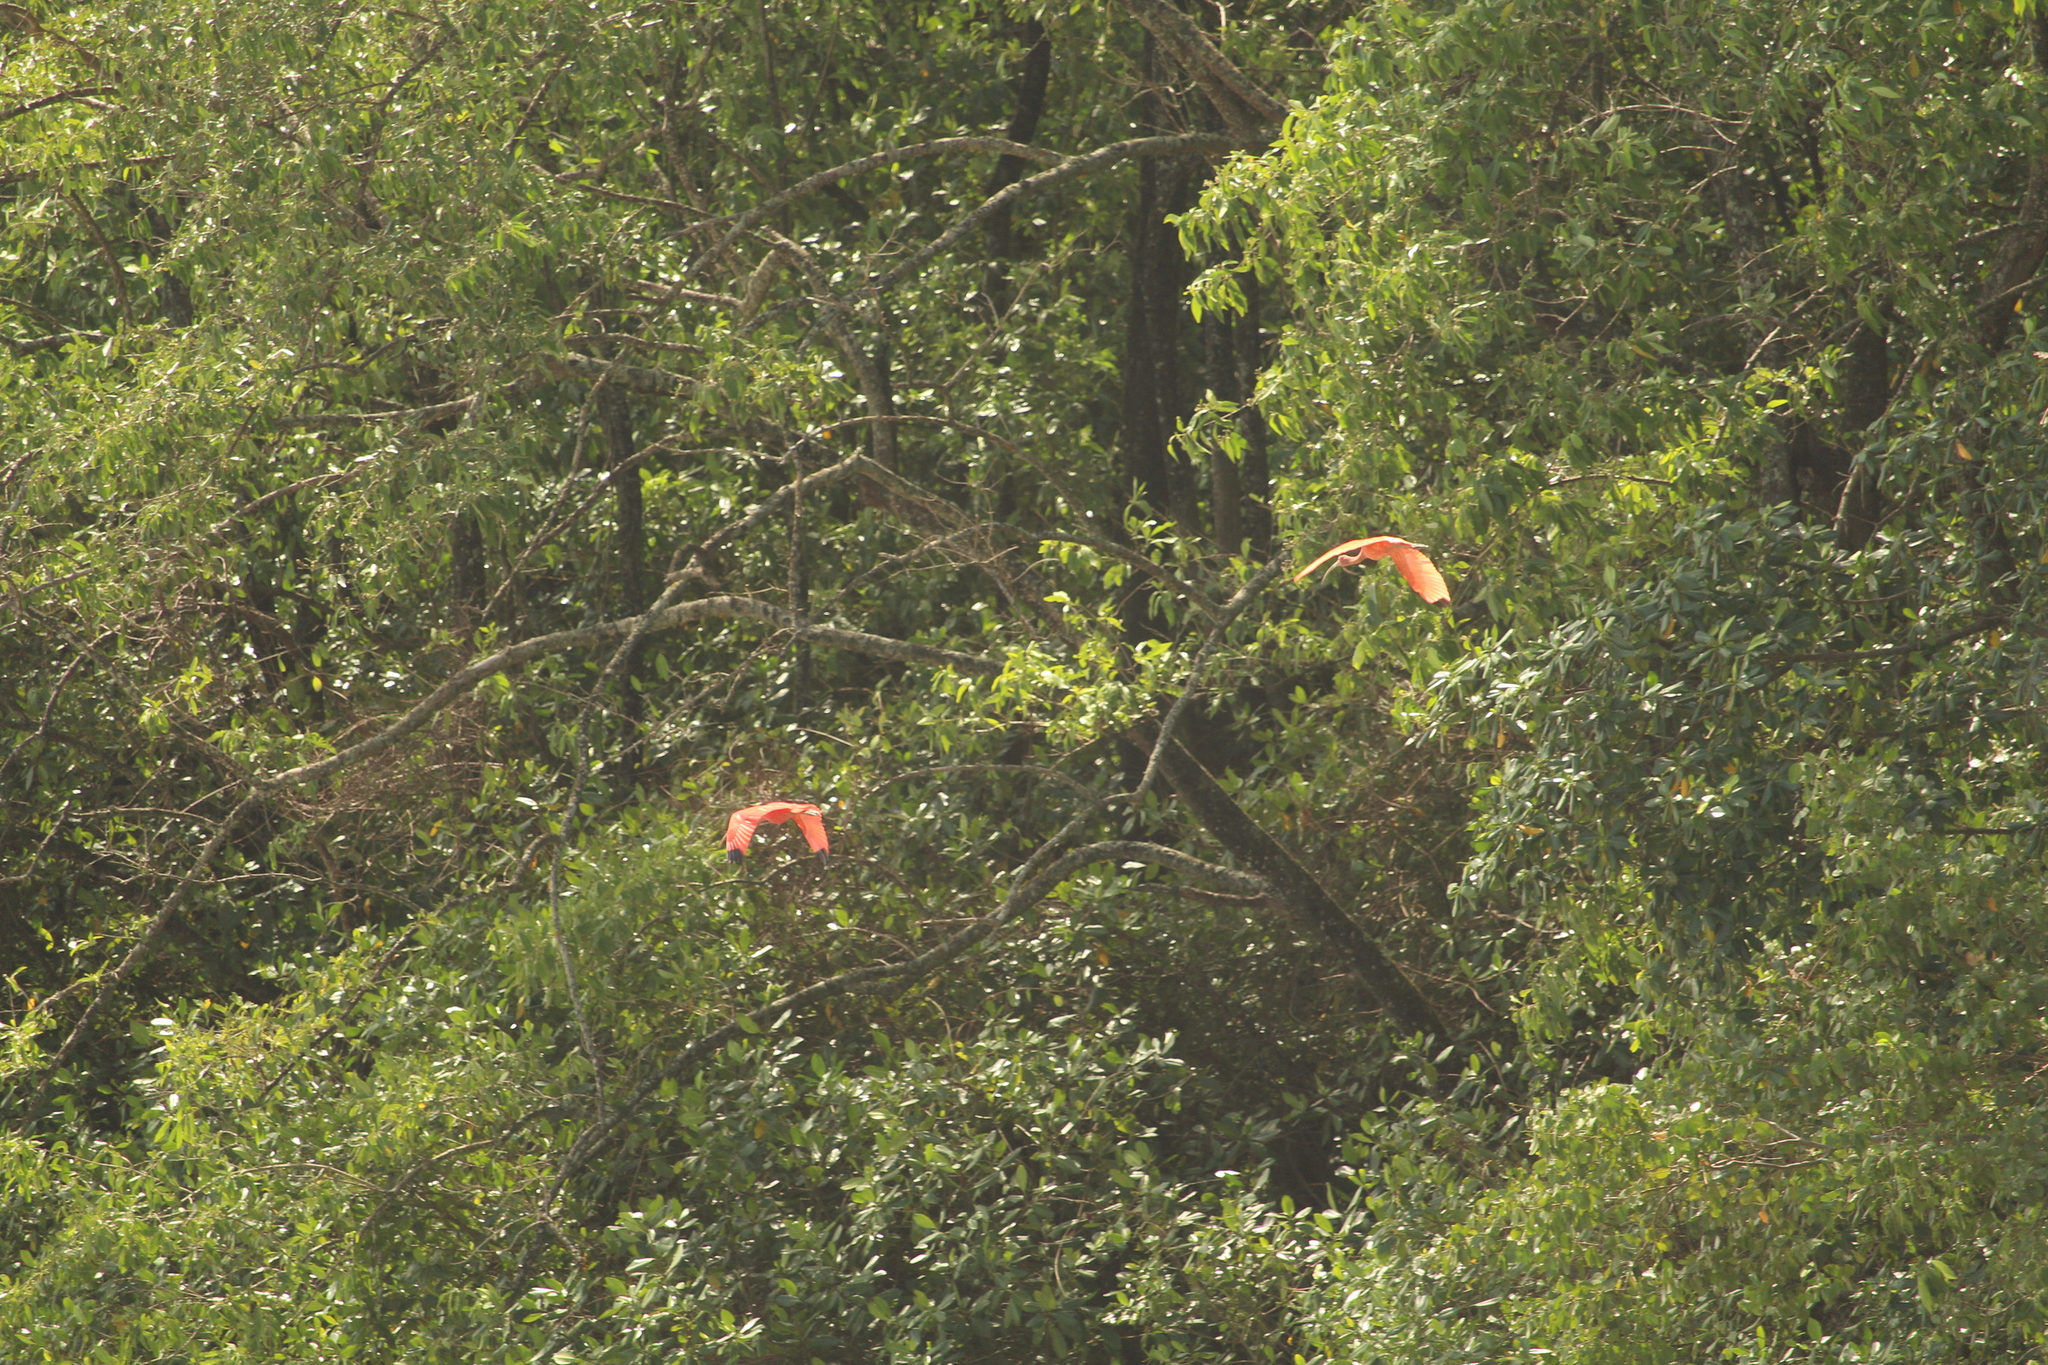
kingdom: Animalia
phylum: Chordata
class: Aves
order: Pelecaniformes
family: Threskiornithidae
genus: Eudocimus
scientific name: Eudocimus ruber
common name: Scarlet ibis
